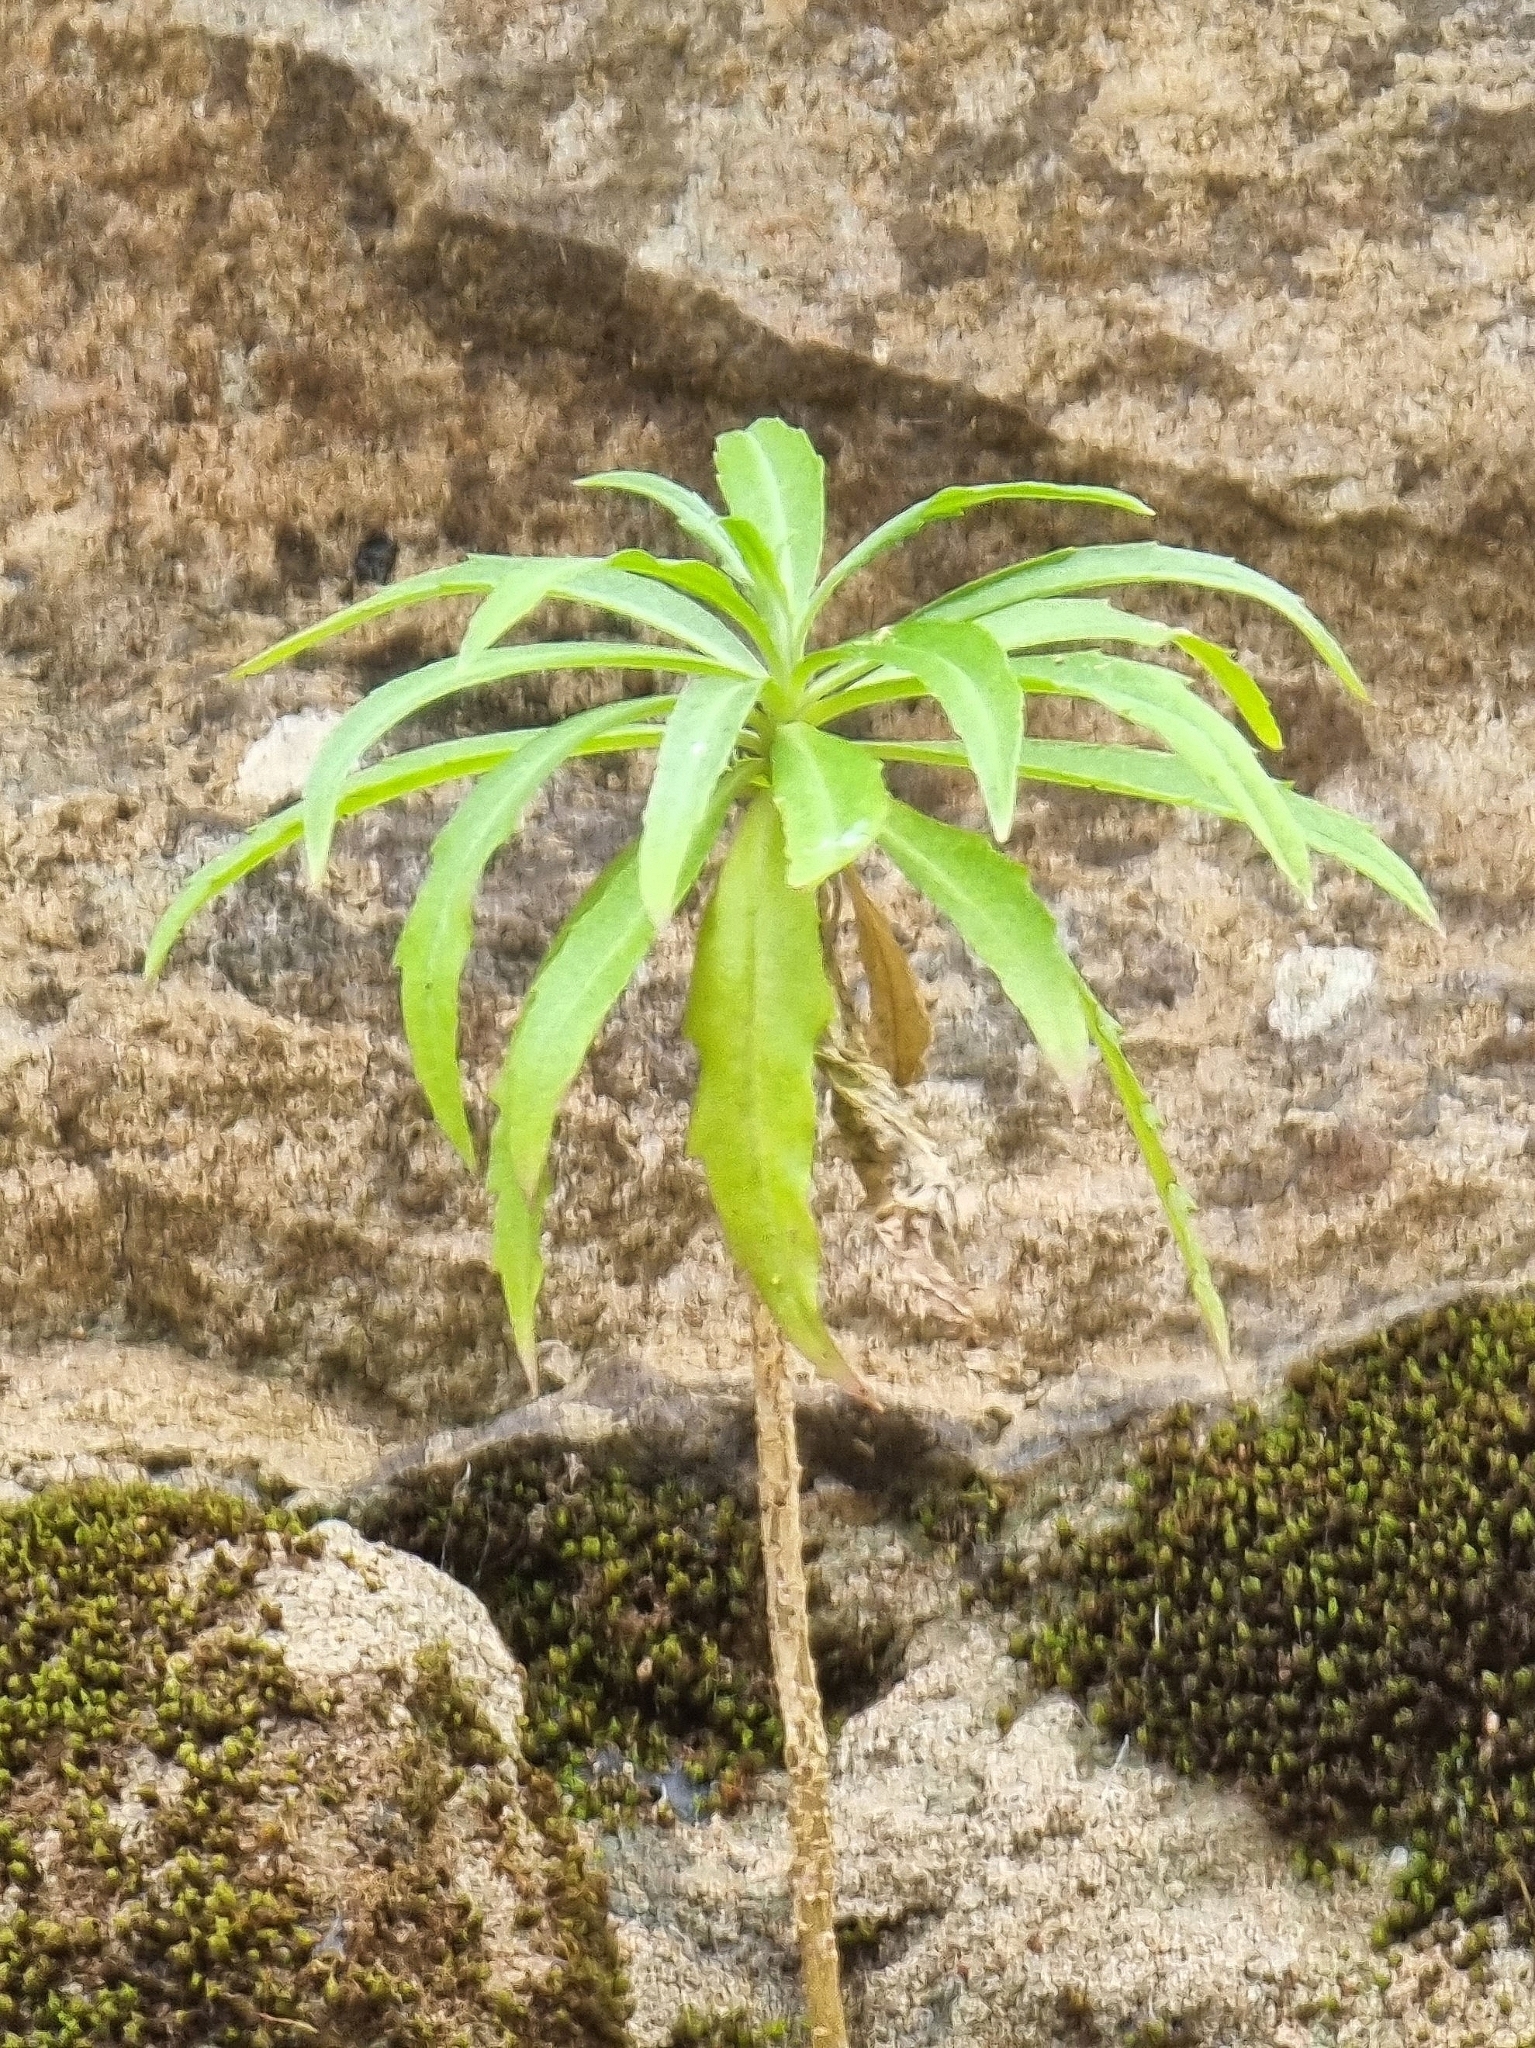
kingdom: Plantae
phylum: Tracheophyta
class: Magnoliopsida
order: Asterales
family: Asteraceae
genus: Carlina
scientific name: Carlina salicifolia
